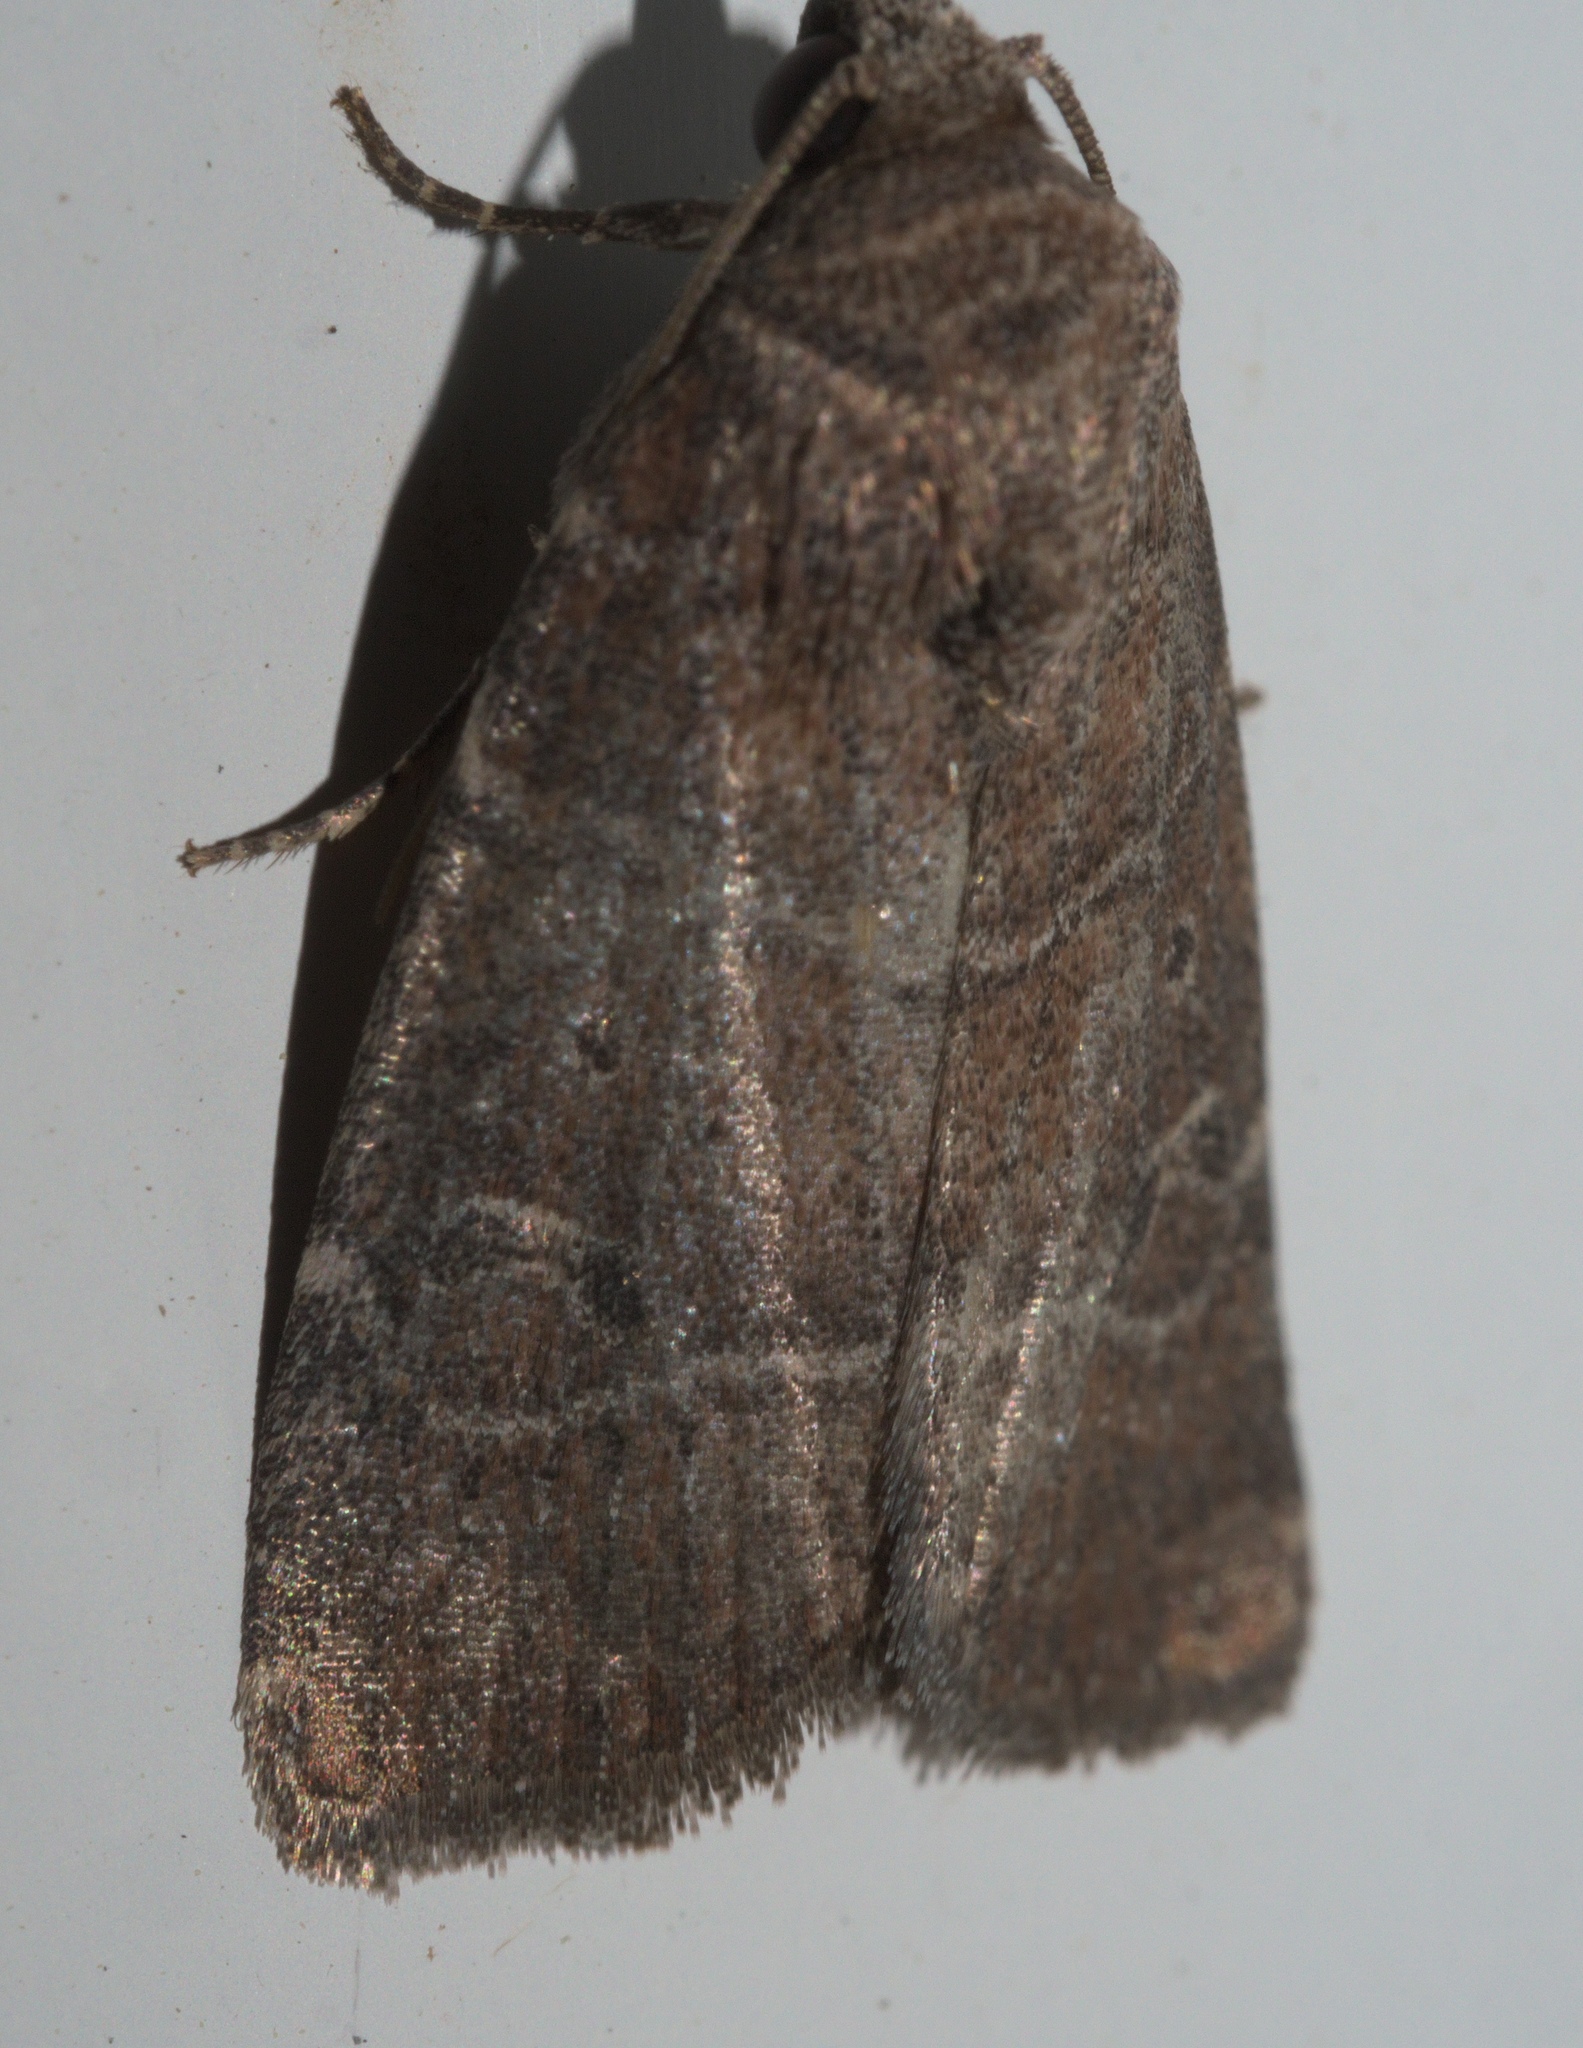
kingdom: Animalia
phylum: Arthropoda
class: Insecta
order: Lepidoptera
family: Noctuidae
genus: Elaphria
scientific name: Elaphria grata
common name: Grateful midget moth
